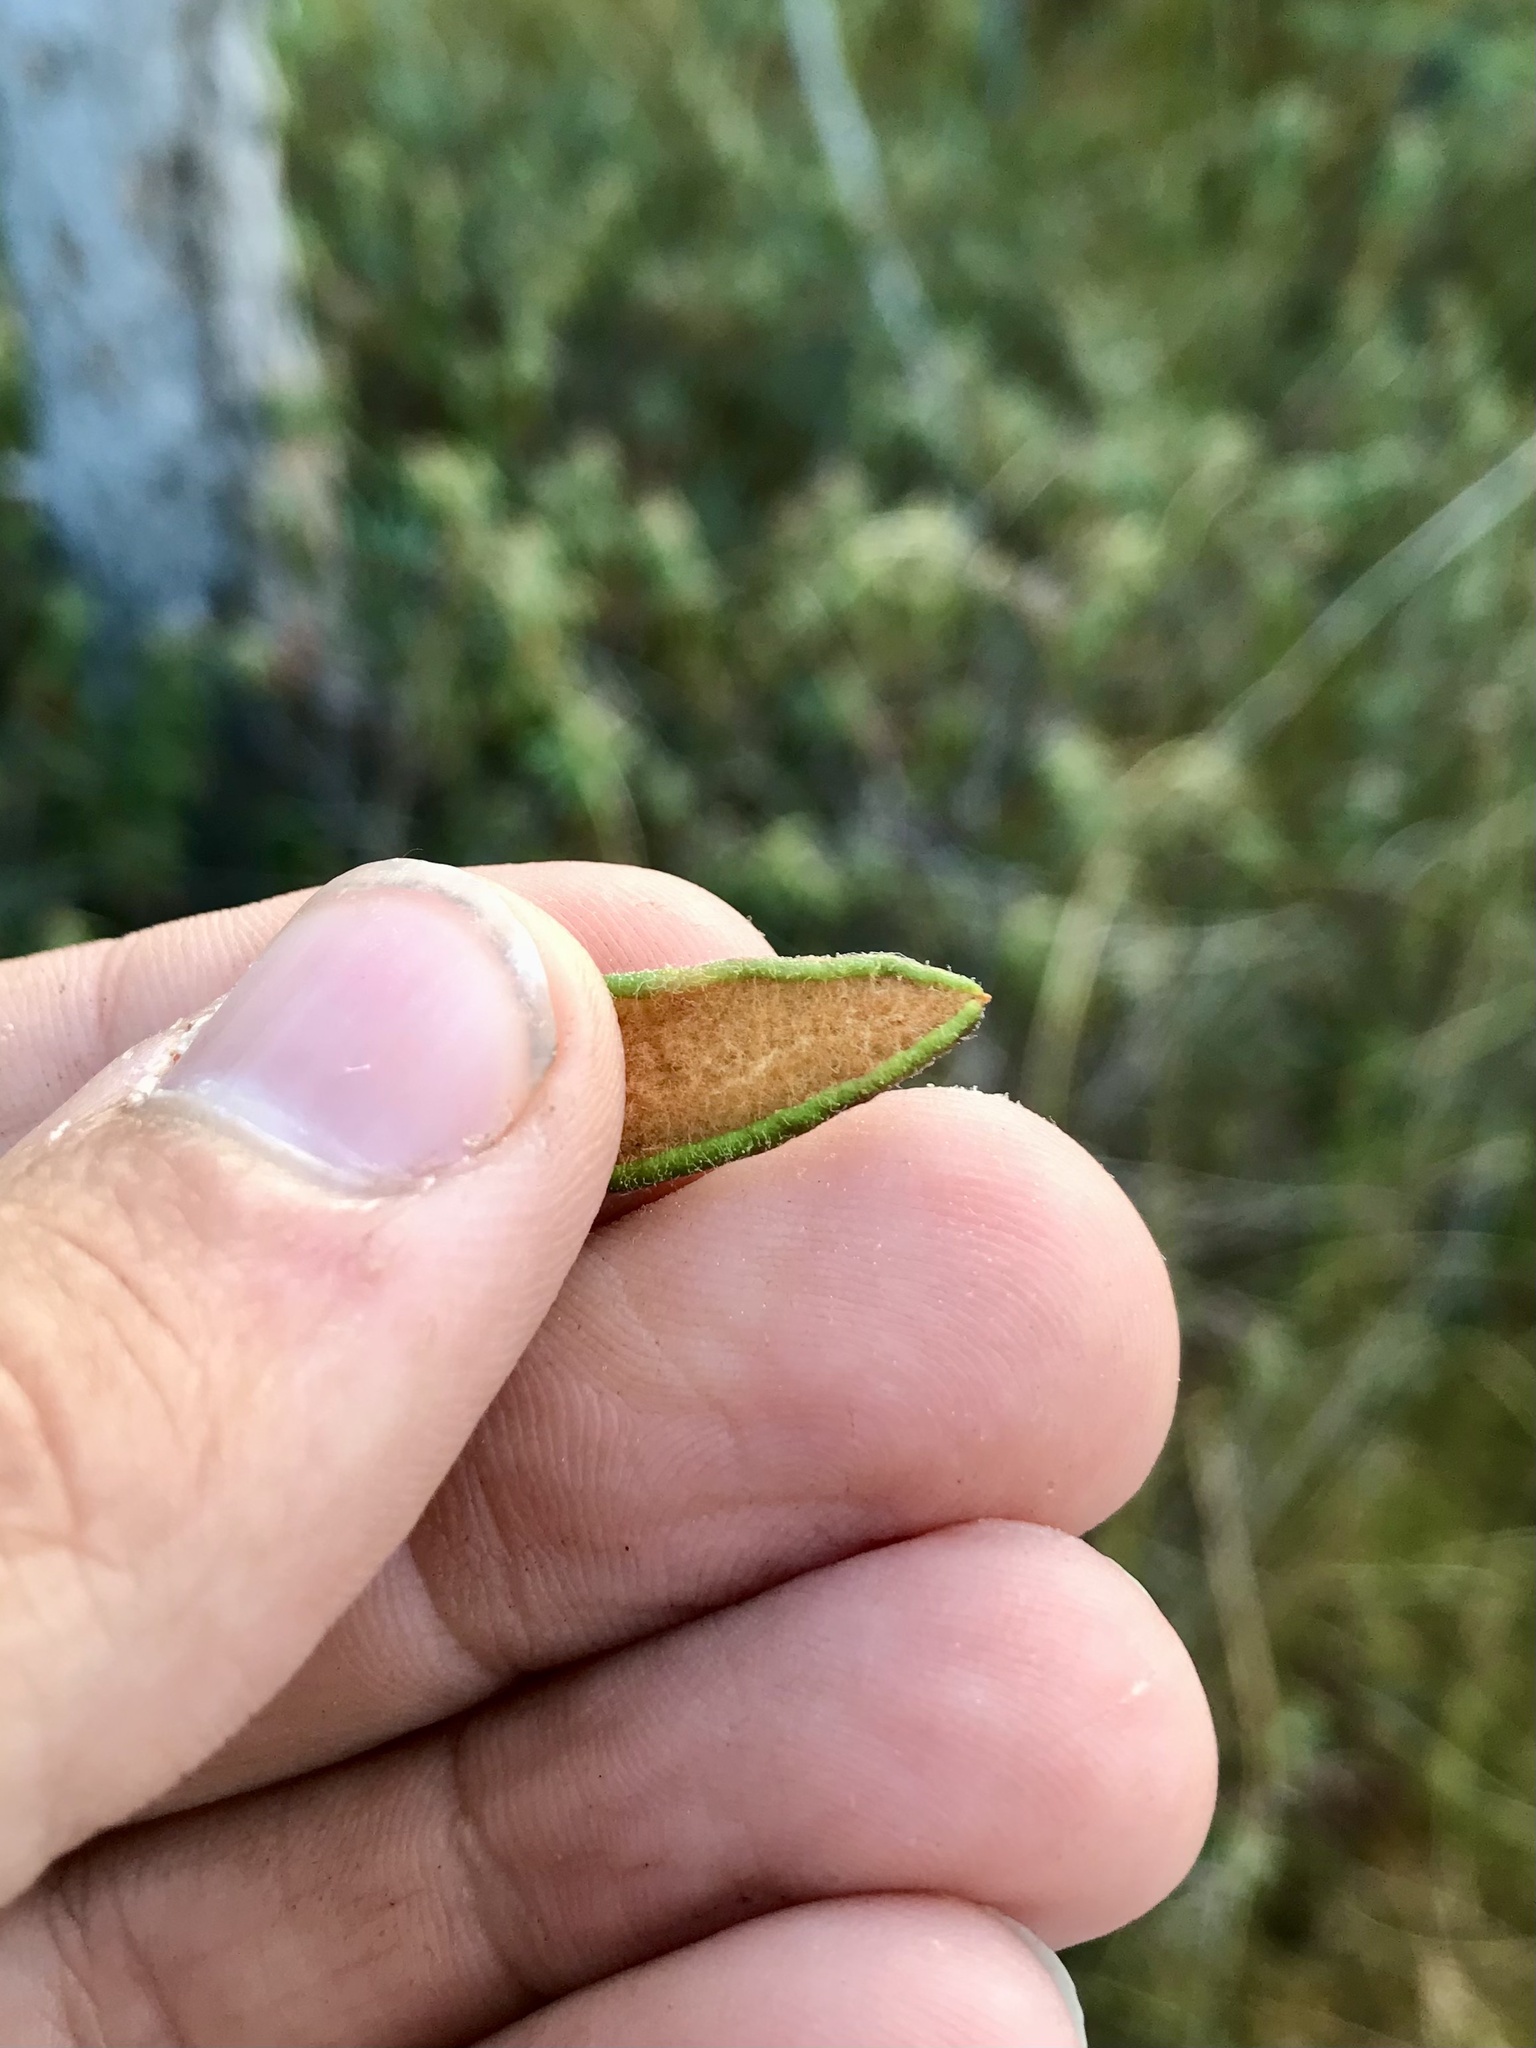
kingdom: Animalia
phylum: Arthropoda
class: Insecta
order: Lepidoptera
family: Nepticulidae
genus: Stigmella
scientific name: Stigmella corylifoliella
